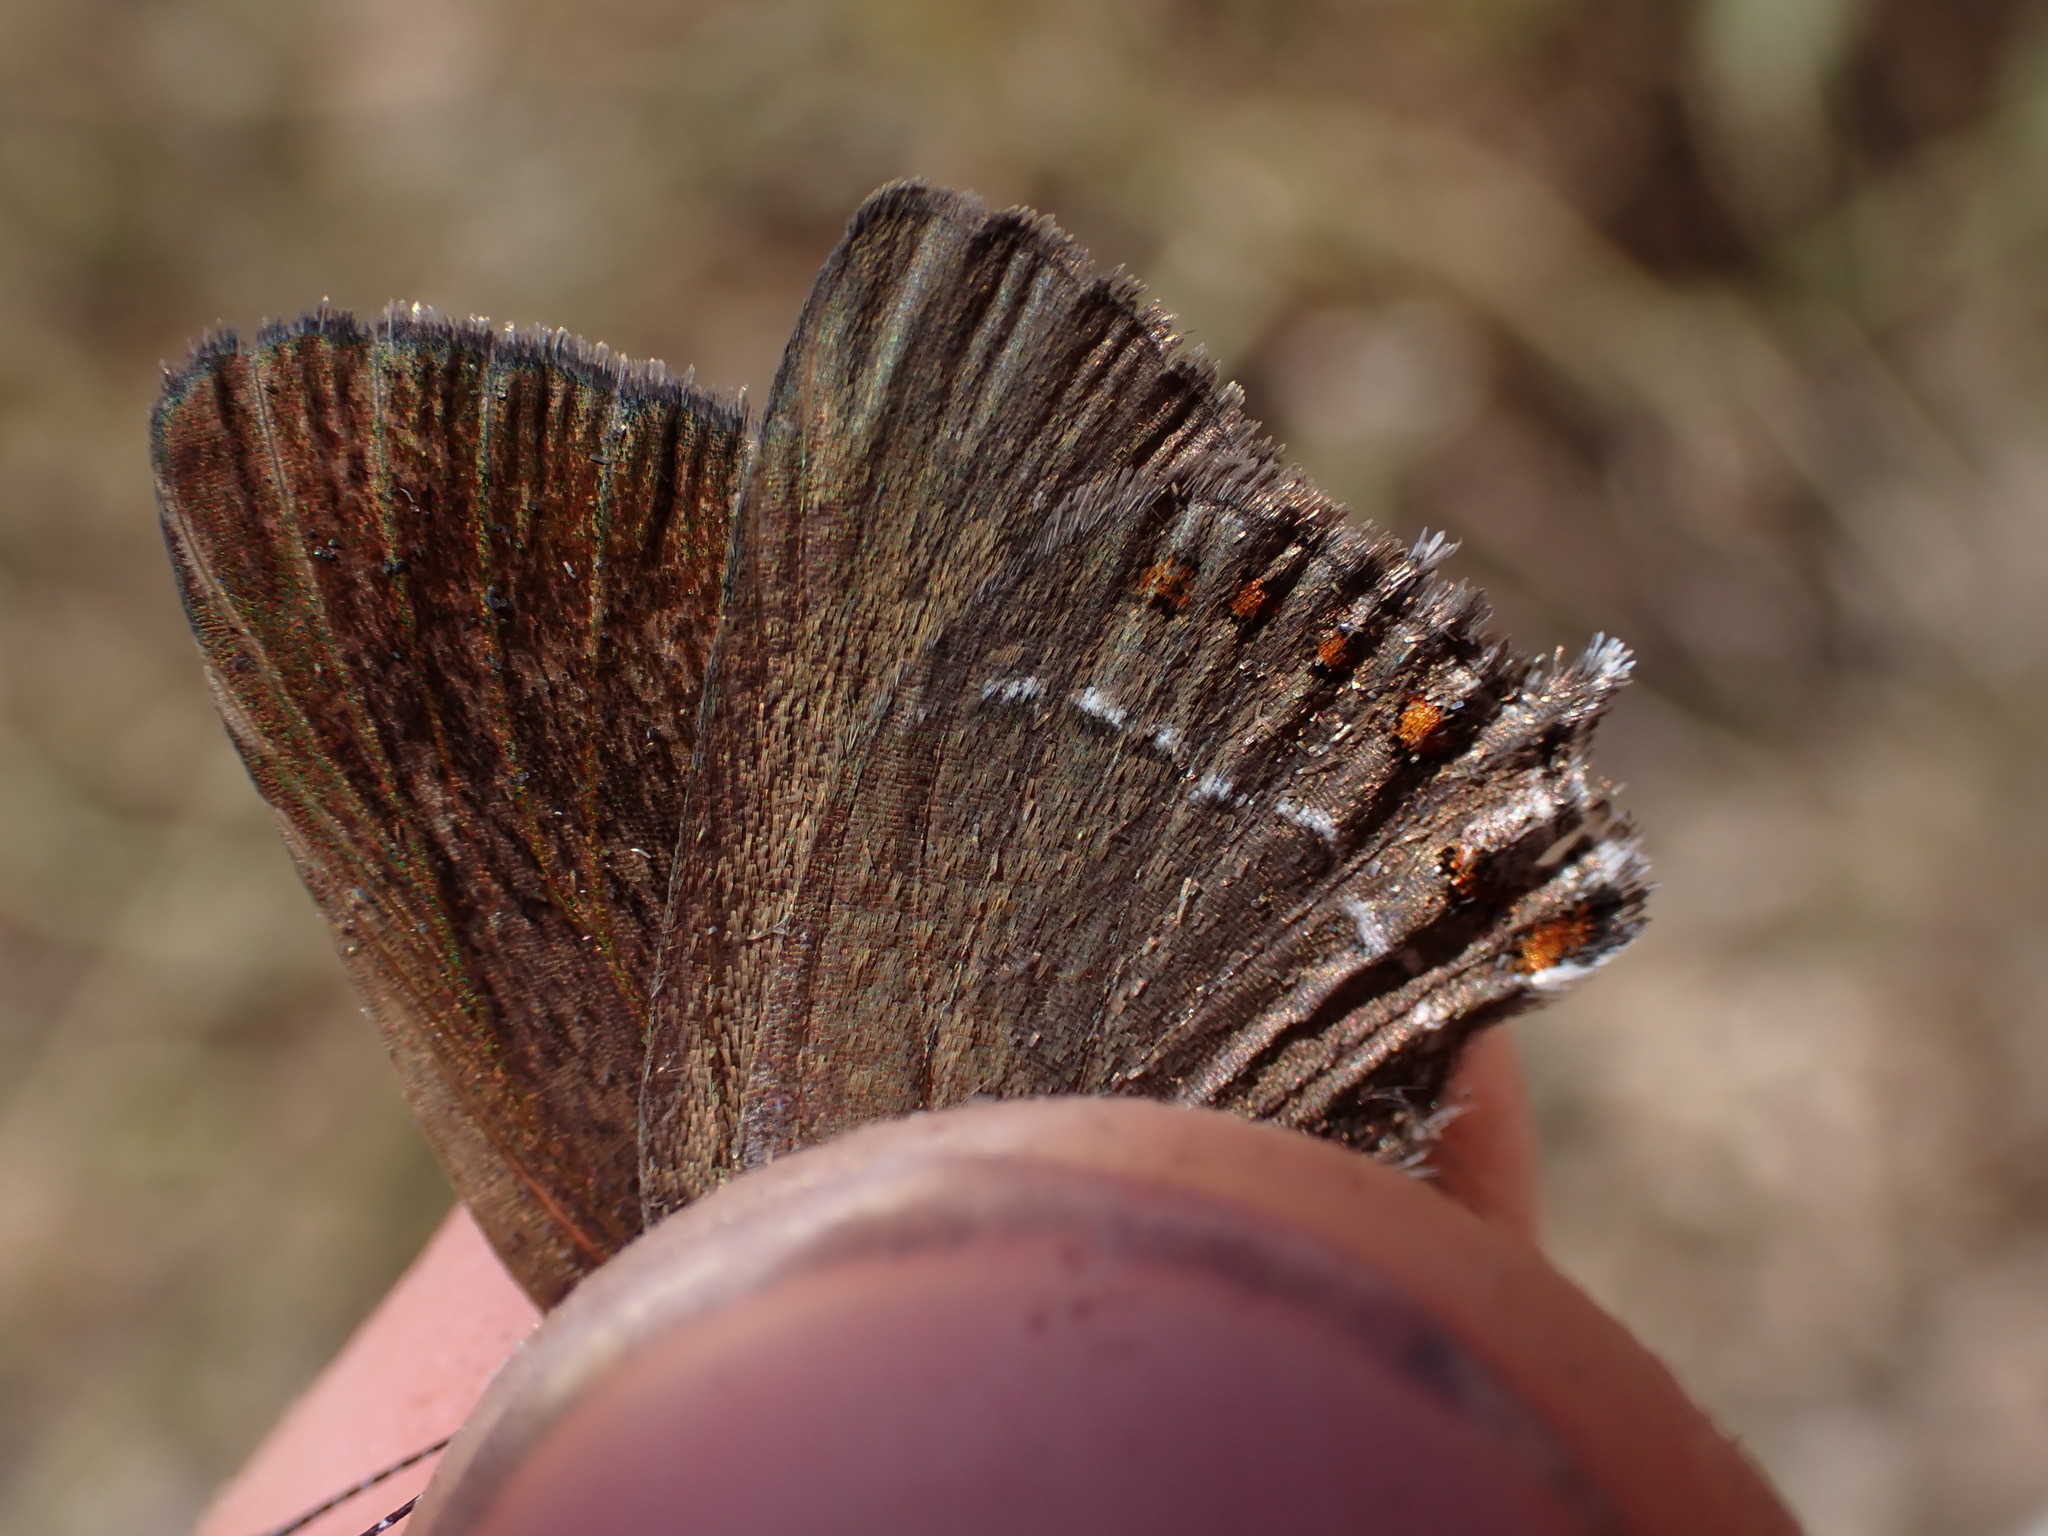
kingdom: Animalia
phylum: Arthropoda
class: Insecta
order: Lepidoptera
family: Lycaenidae
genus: Fixsenia
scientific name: Fixsenia esculi
